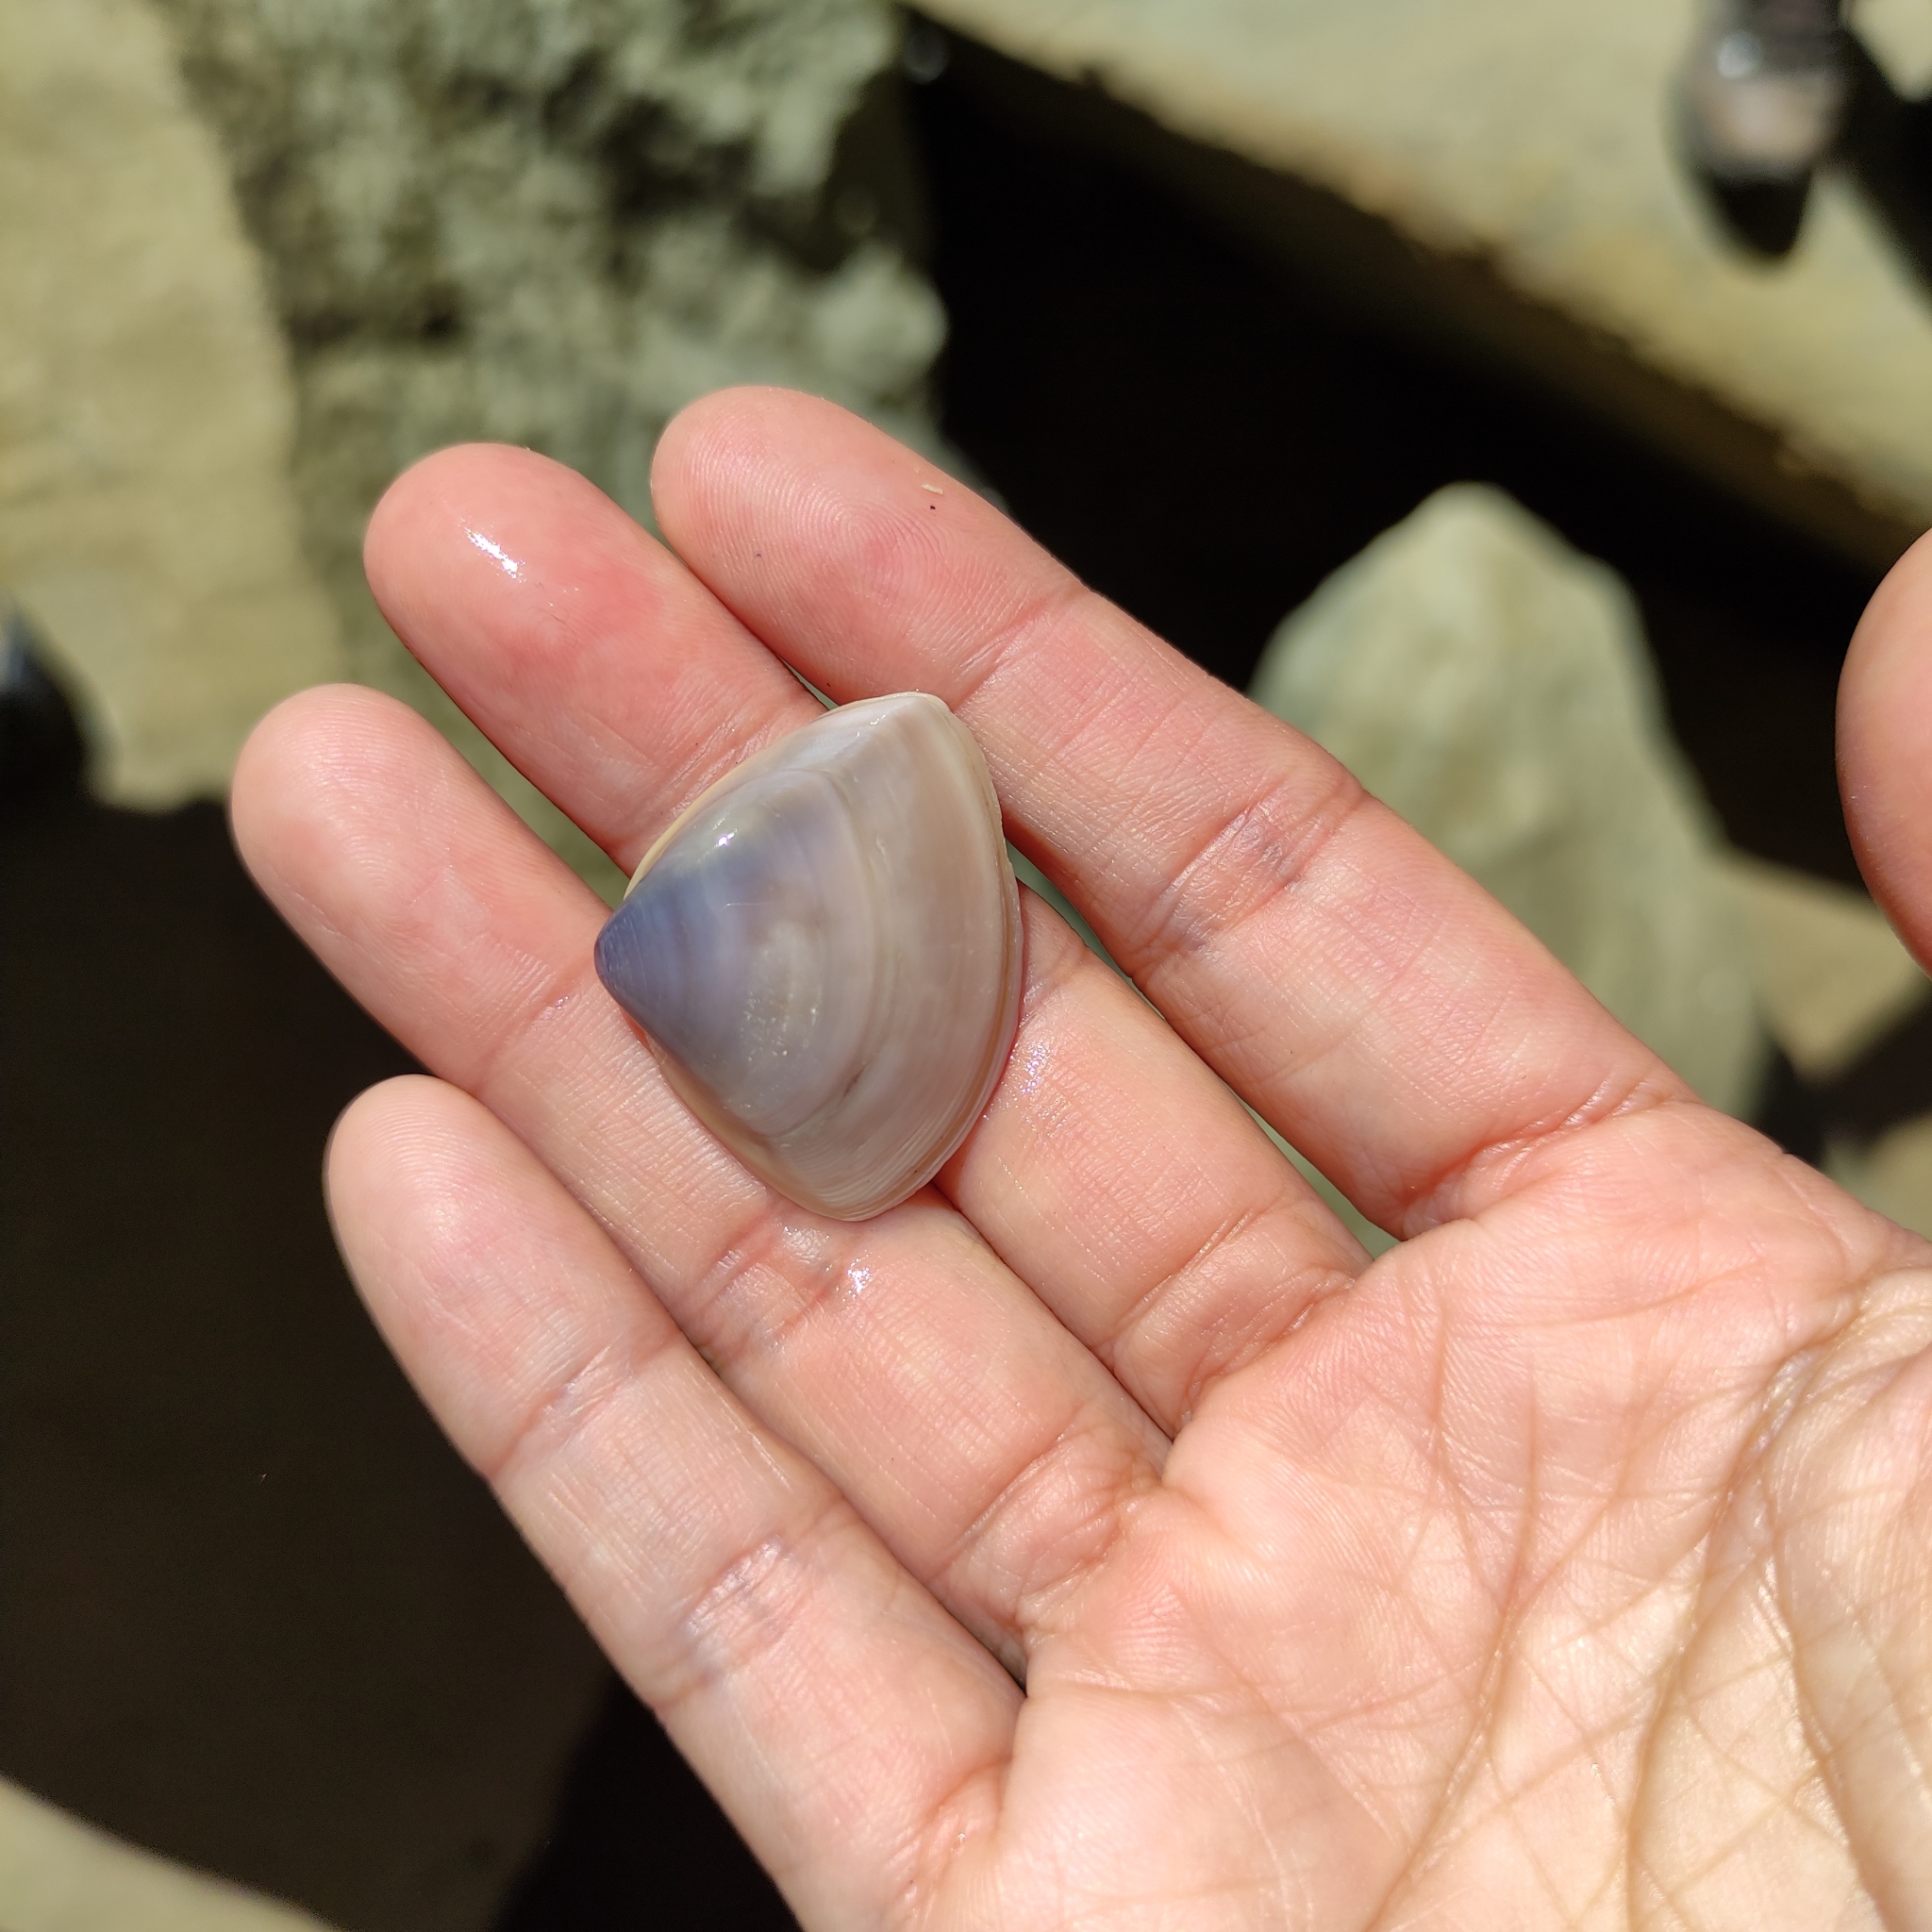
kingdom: Animalia
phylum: Mollusca
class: Bivalvia
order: Venerida
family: Mactridae
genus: Crassula
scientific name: Crassula aequilatera
